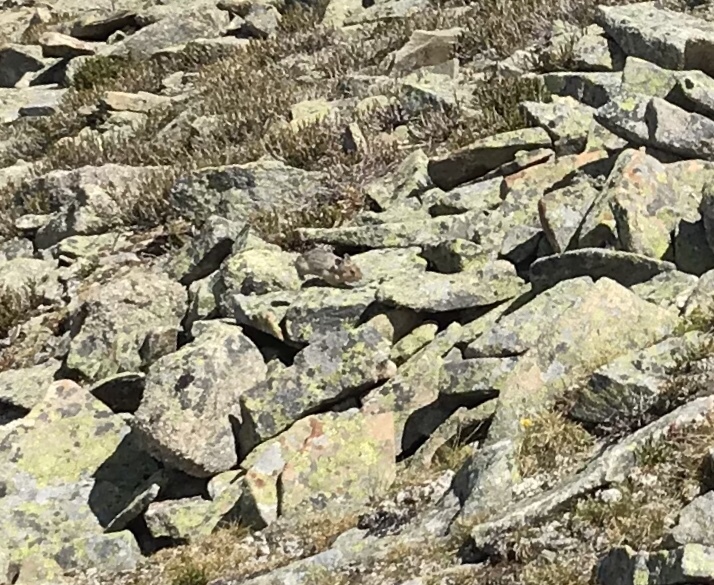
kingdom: Animalia
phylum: Chordata
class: Mammalia
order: Lagomorpha
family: Ochotonidae
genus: Ochotona
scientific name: Ochotona princeps
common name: American pika
